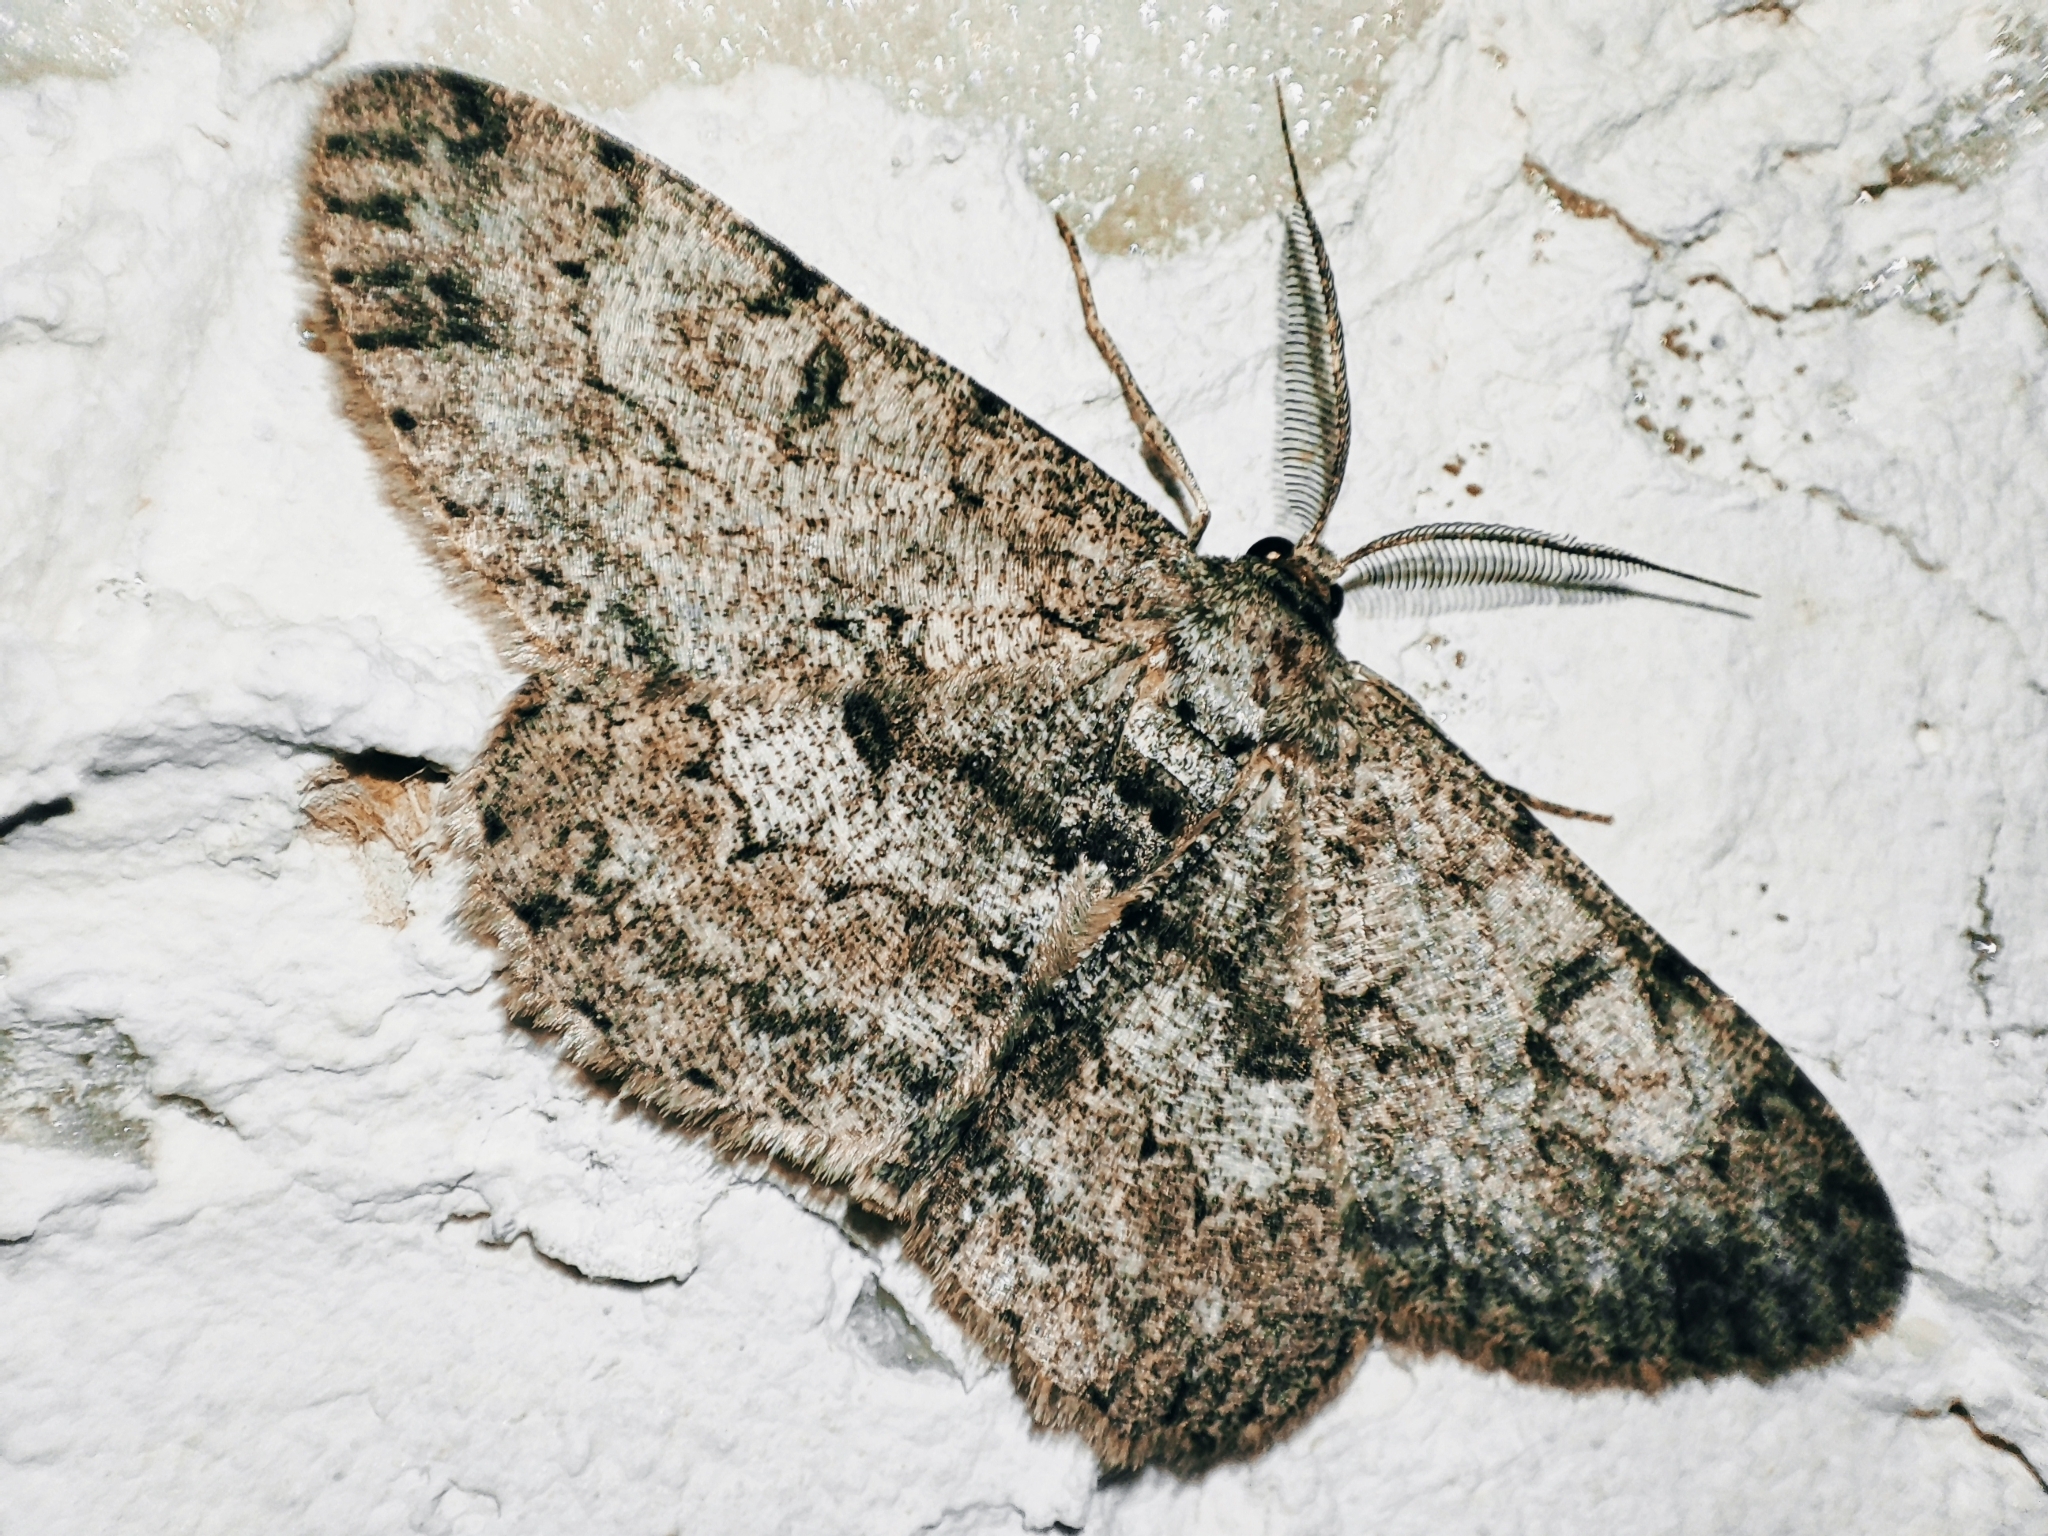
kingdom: Animalia
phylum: Arthropoda
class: Insecta
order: Lepidoptera
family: Geometridae
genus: Hypomecis
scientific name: Hypomecis punctinalis
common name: Pale oak beauty
